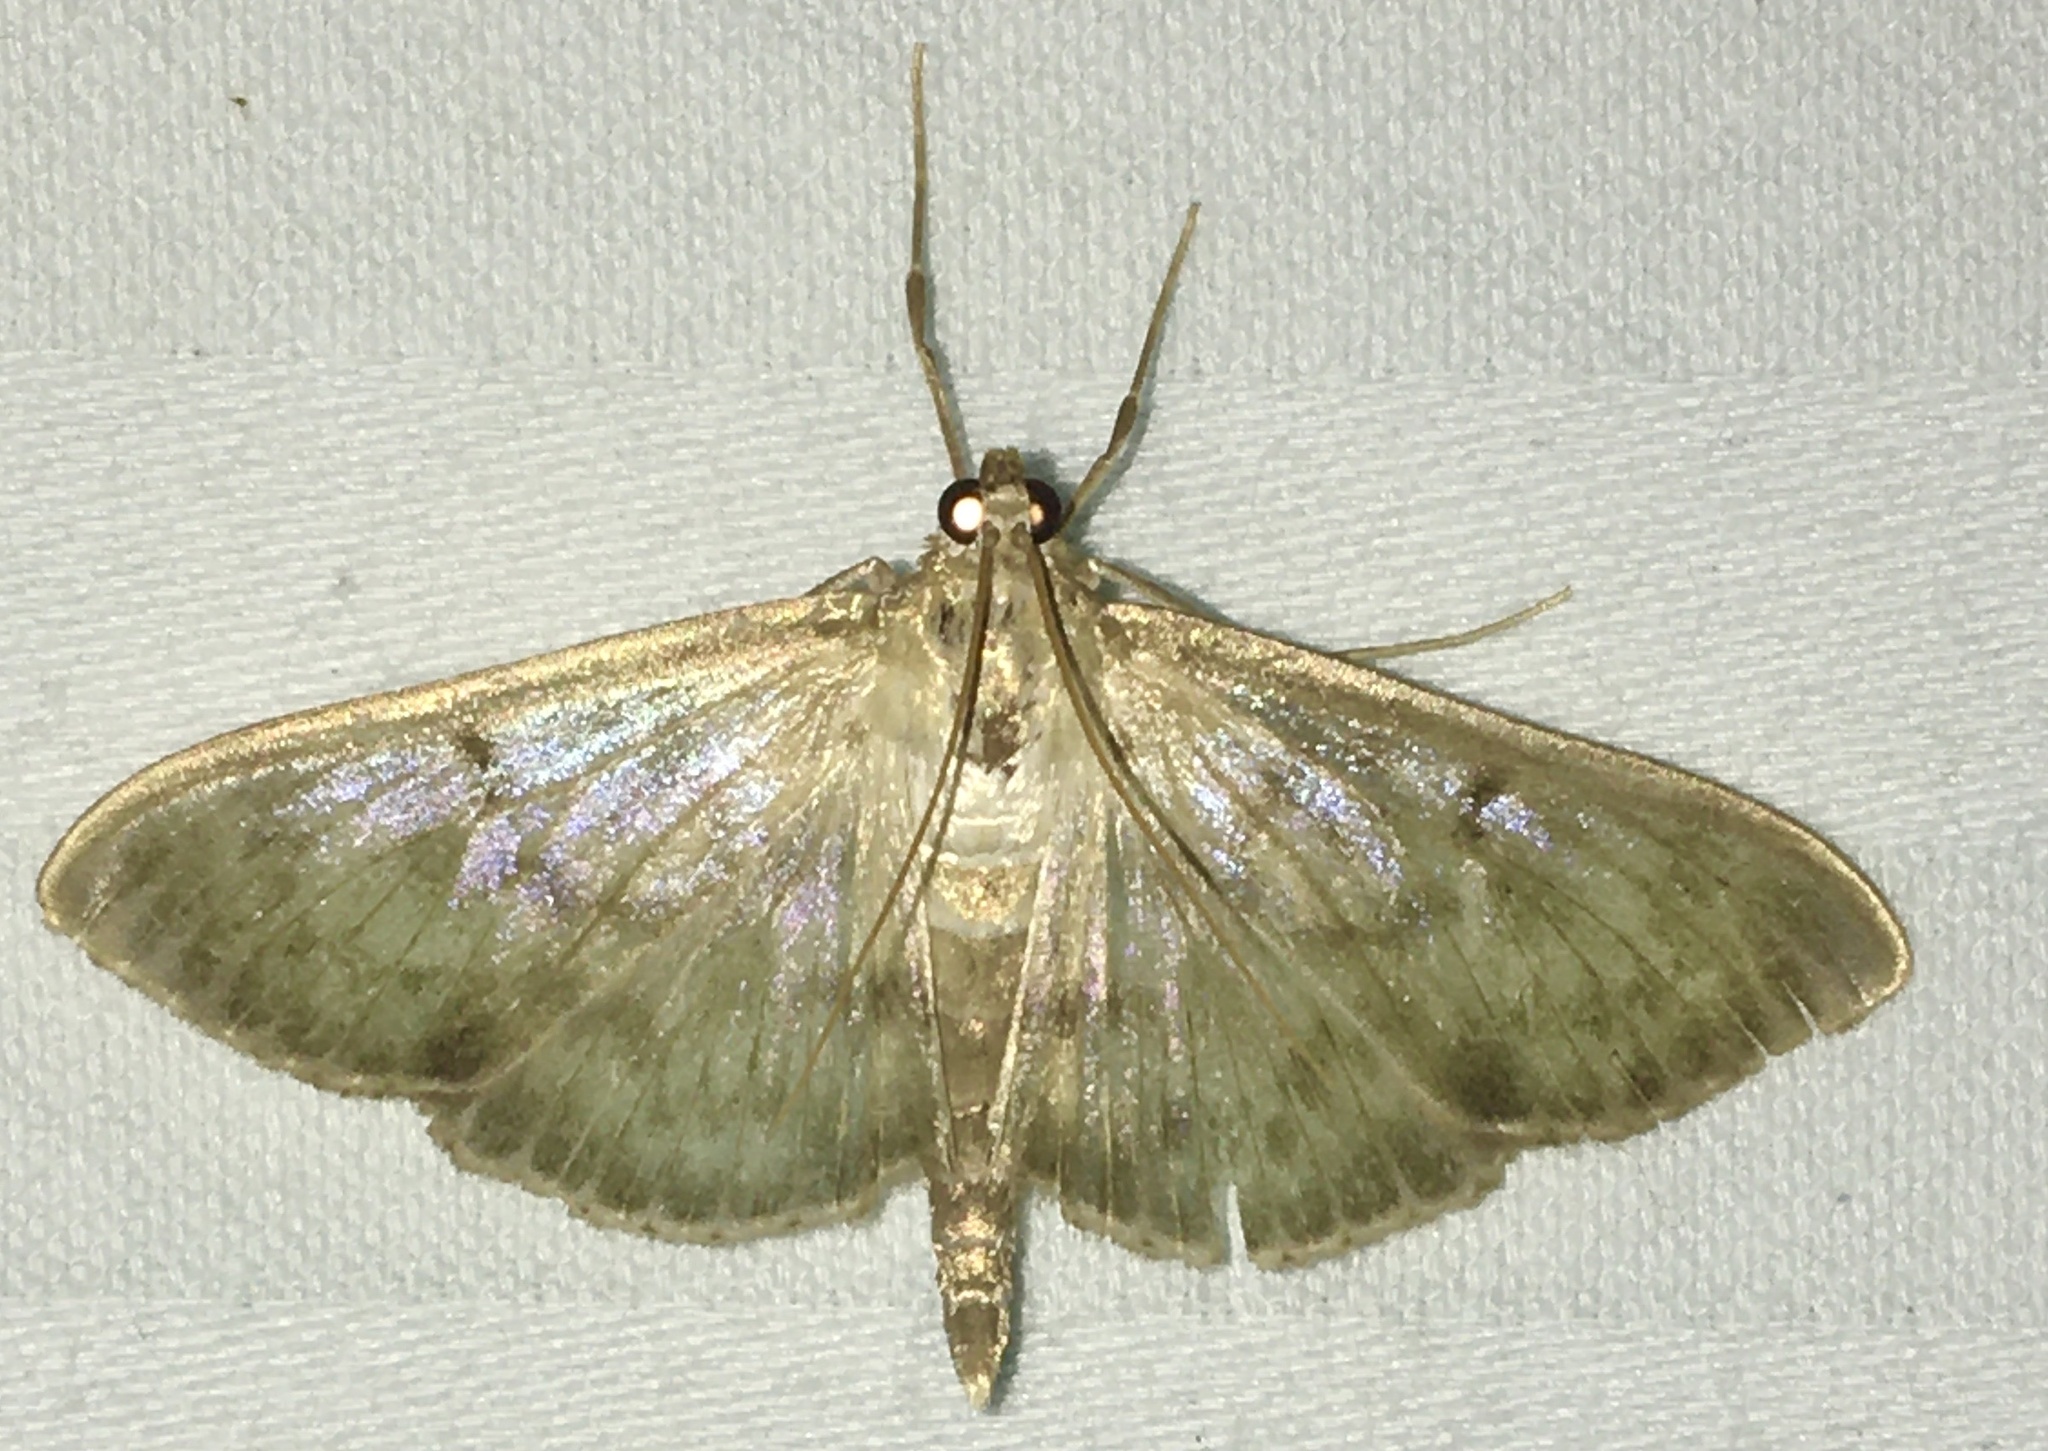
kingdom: Animalia
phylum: Arthropoda
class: Insecta
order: Lepidoptera
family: Crambidae
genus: Patania
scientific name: Patania ruralis
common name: Mother of pearl
